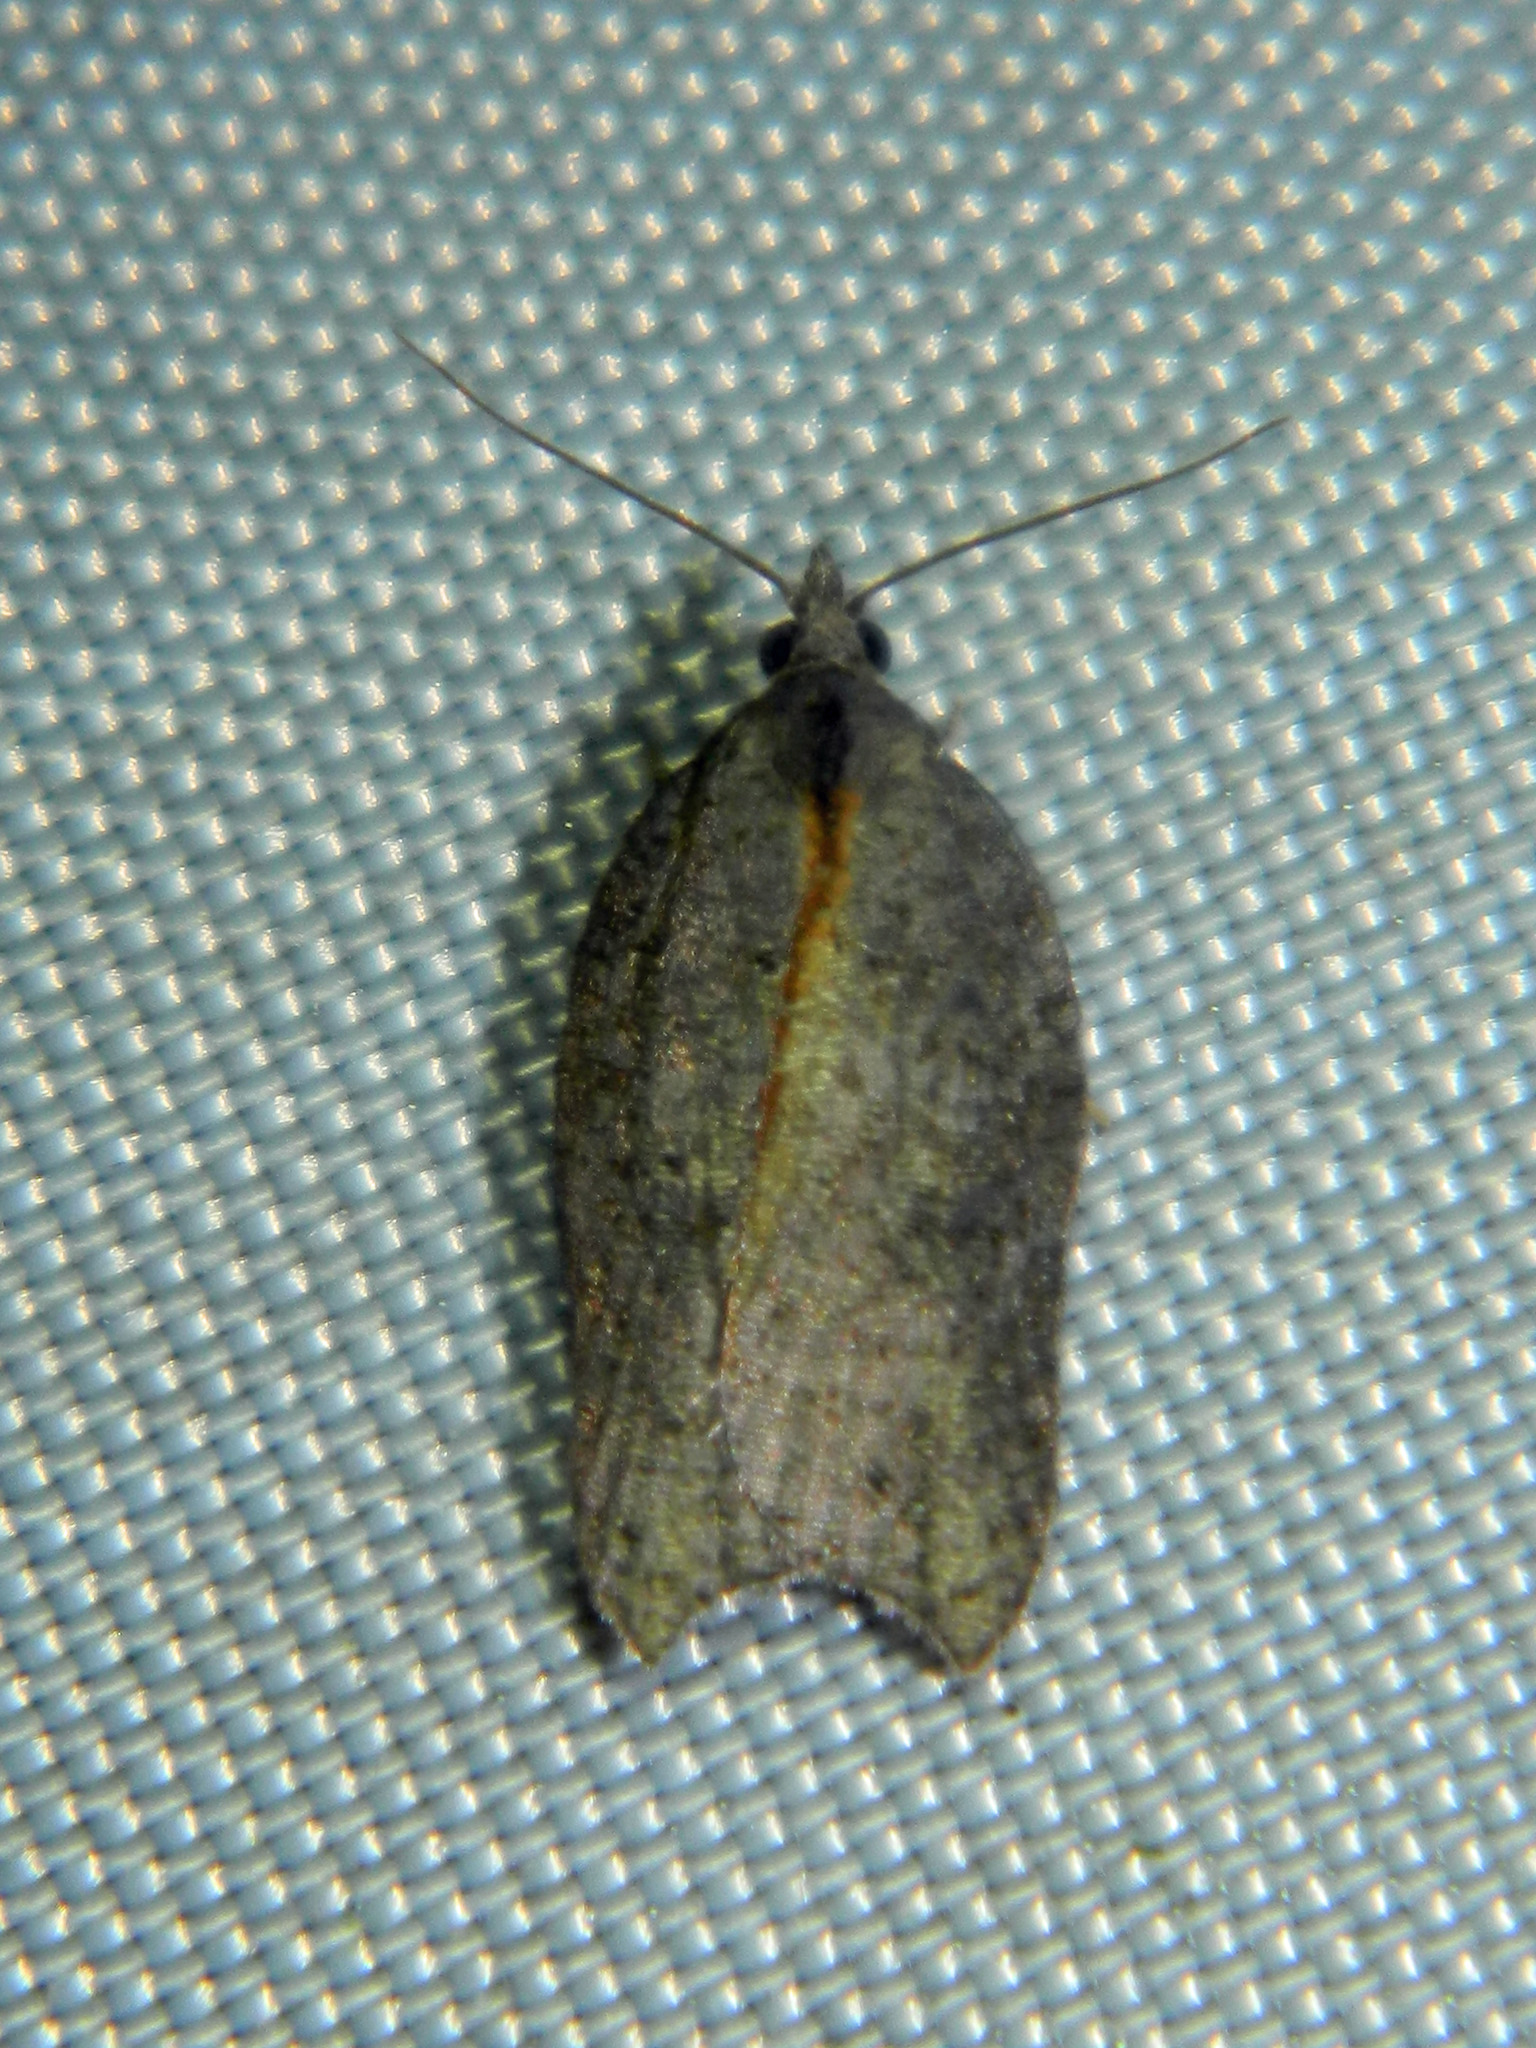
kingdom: Animalia
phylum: Arthropoda
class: Insecta
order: Lepidoptera
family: Tortricidae
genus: Acleris
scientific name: Acleris effractana
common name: Hook-winged tortrix moth
